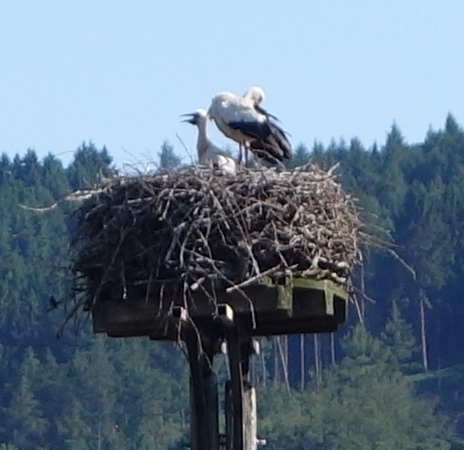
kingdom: Animalia
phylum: Chordata
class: Aves
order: Ciconiiformes
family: Ciconiidae
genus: Ciconia
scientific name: Ciconia ciconia
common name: White stork
